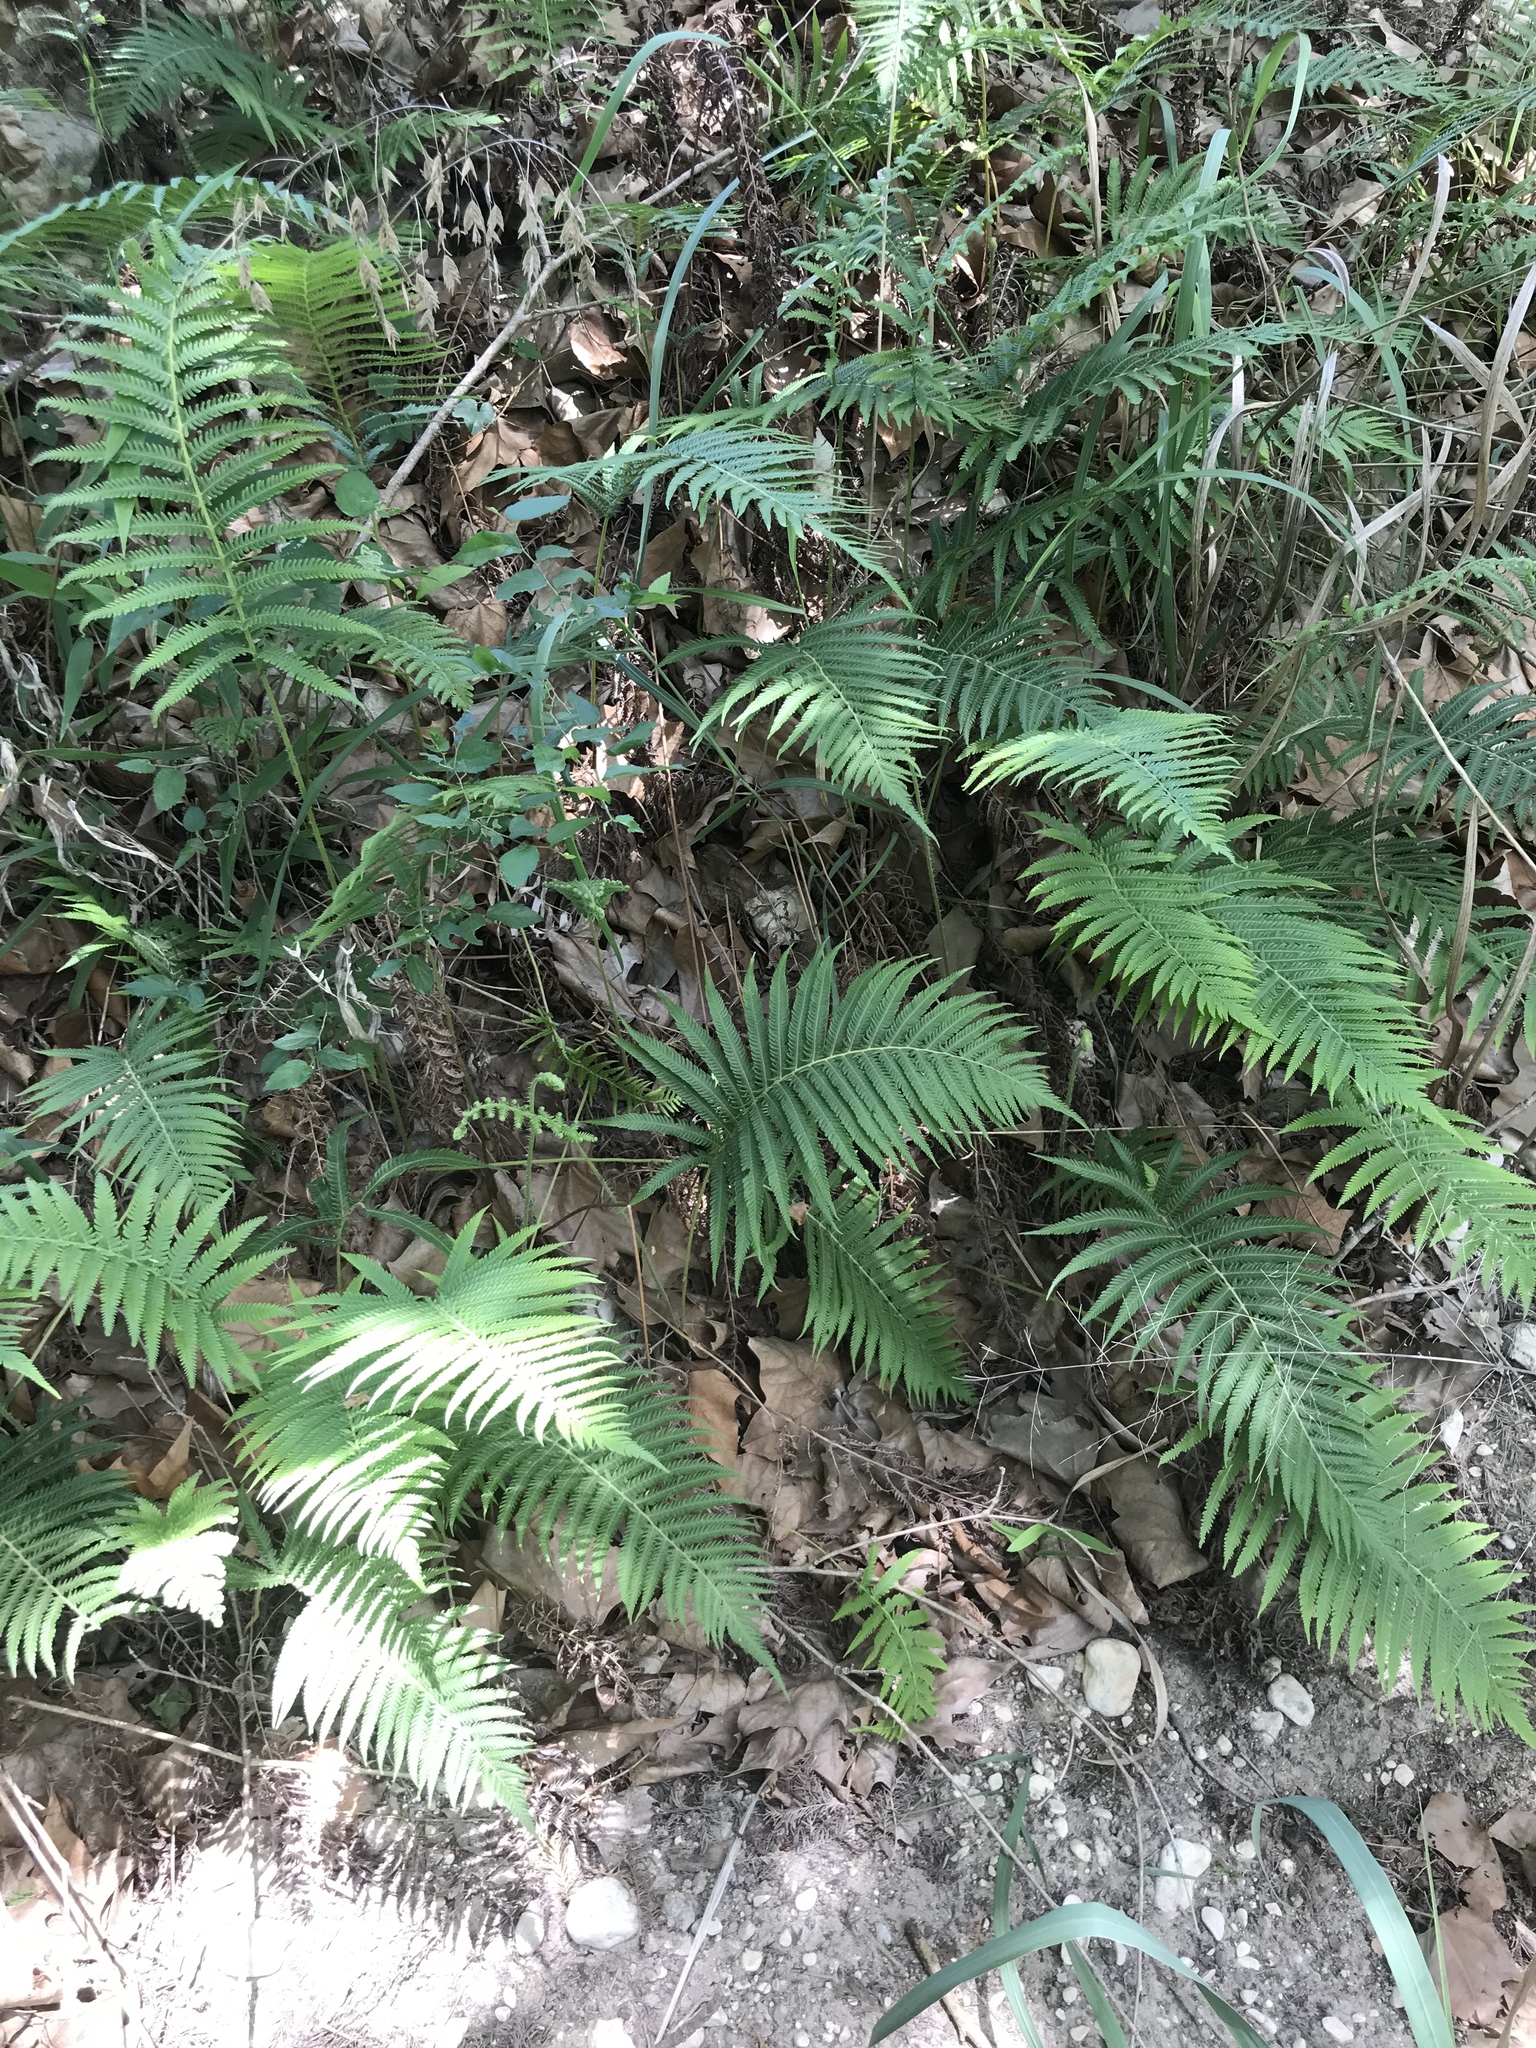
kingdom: Plantae
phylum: Tracheophyta
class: Polypodiopsida
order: Polypodiales
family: Thelypteridaceae
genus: Pelazoneuron
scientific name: Pelazoneuron ovatum
